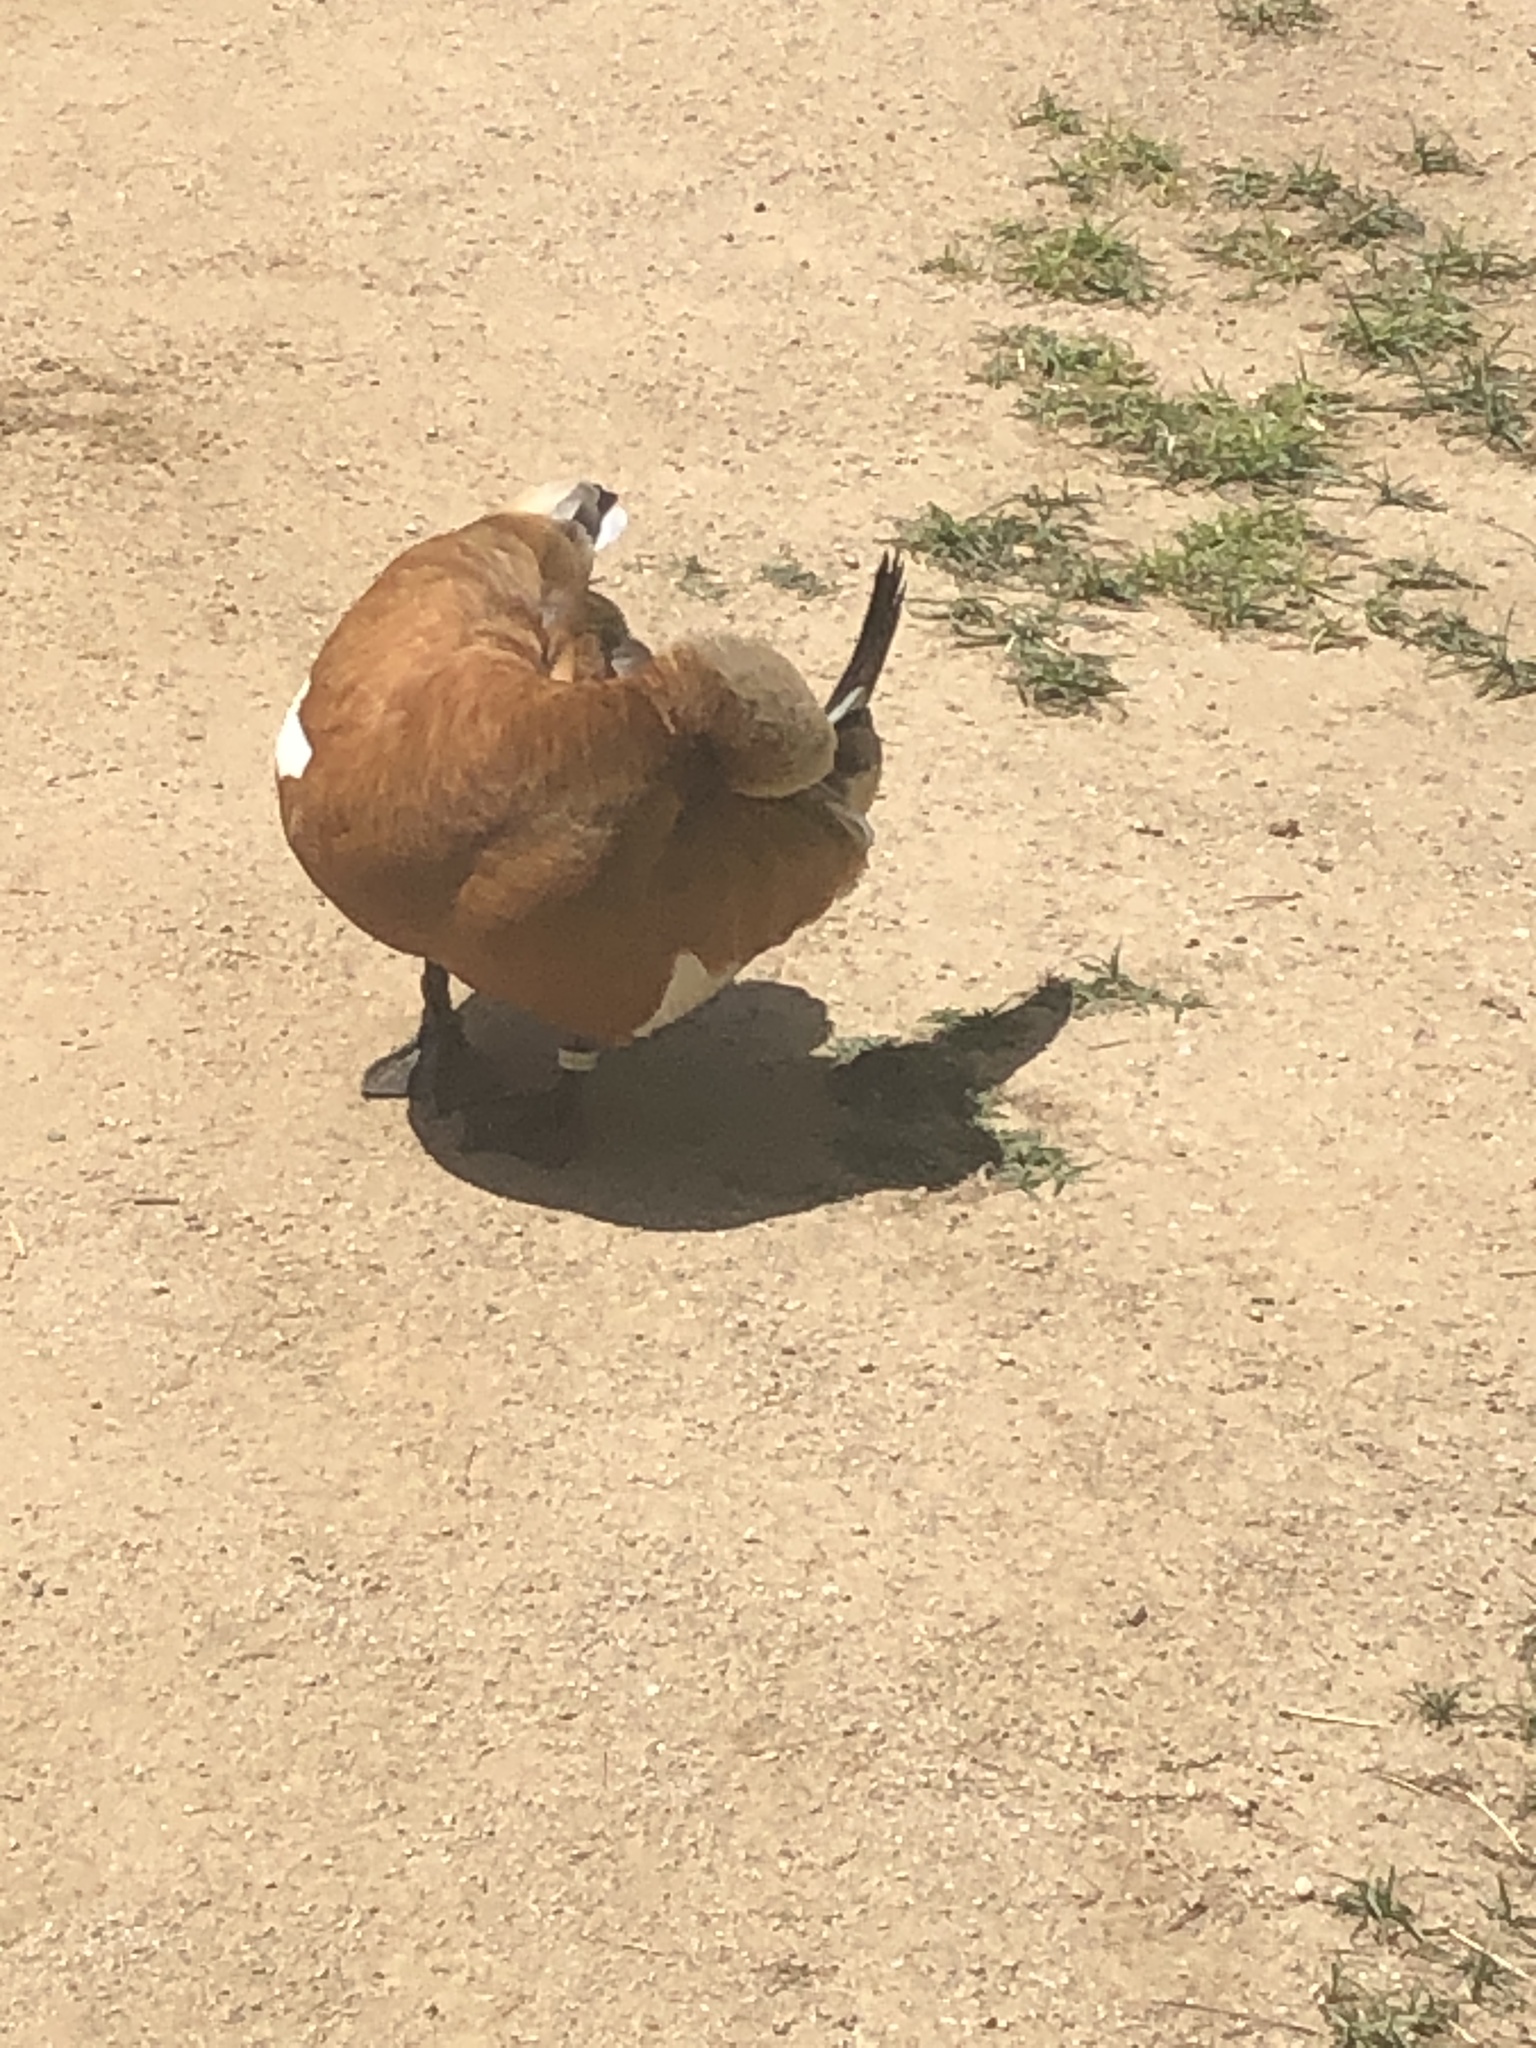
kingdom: Animalia
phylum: Chordata
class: Aves
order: Anseriformes
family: Anatidae
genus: Tadorna
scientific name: Tadorna ferruginea
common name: Ruddy shelduck
